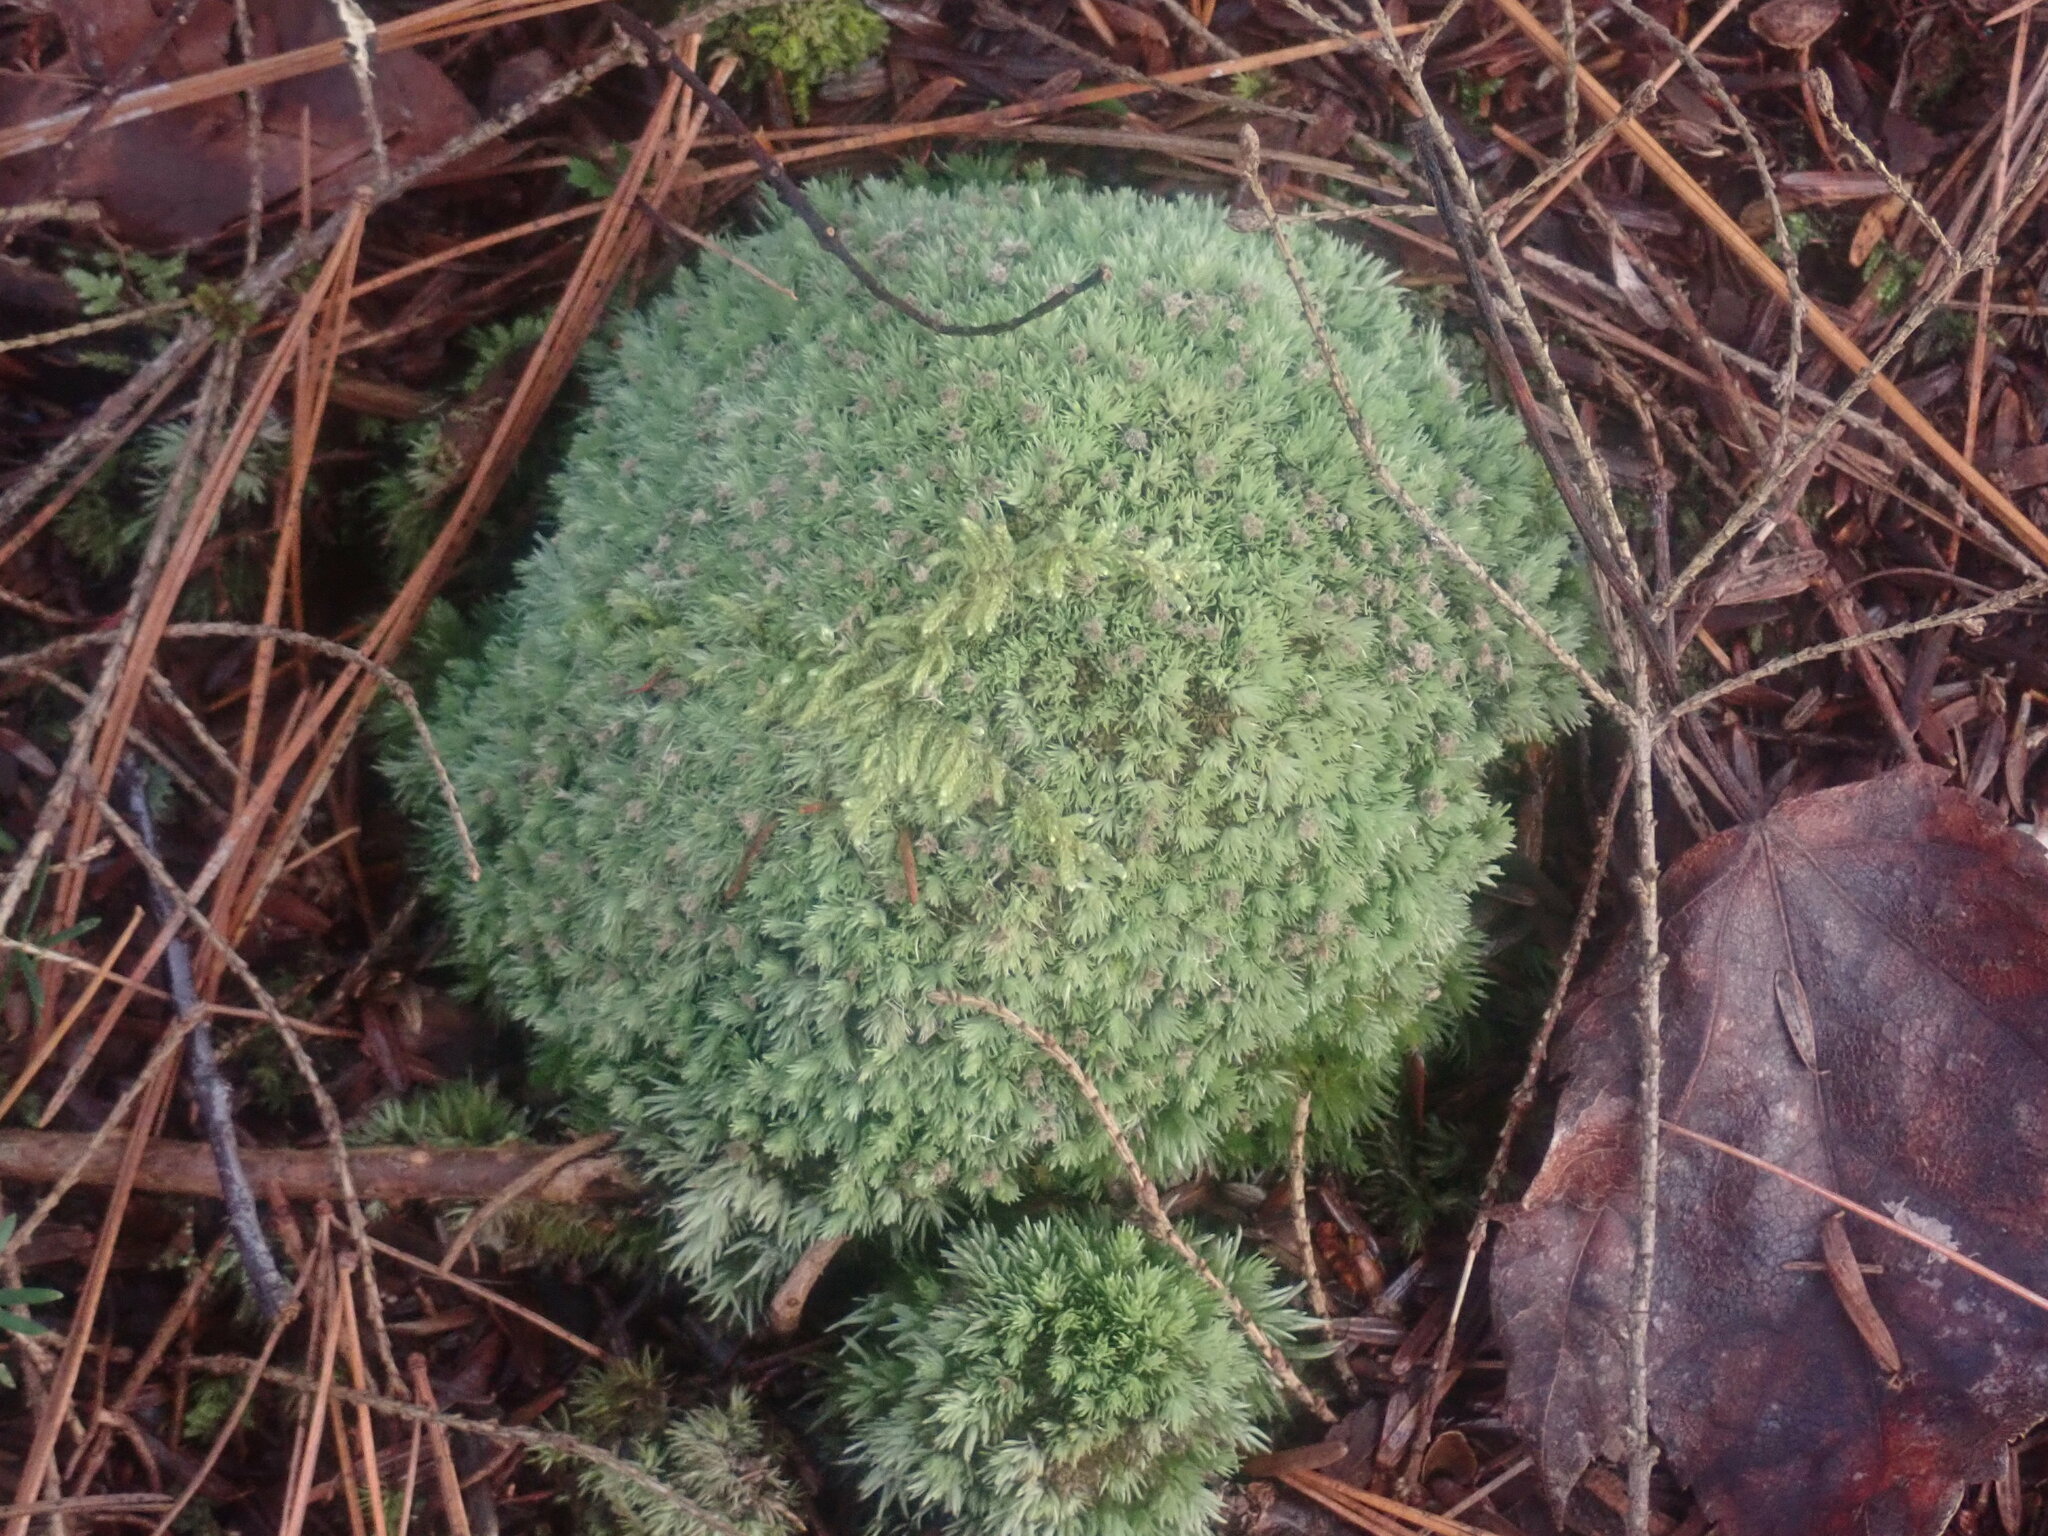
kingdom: Plantae
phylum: Bryophyta
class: Bryopsida
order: Dicranales
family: Leucobryaceae
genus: Leucobryum
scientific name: Leucobryum albidum
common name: White moss
